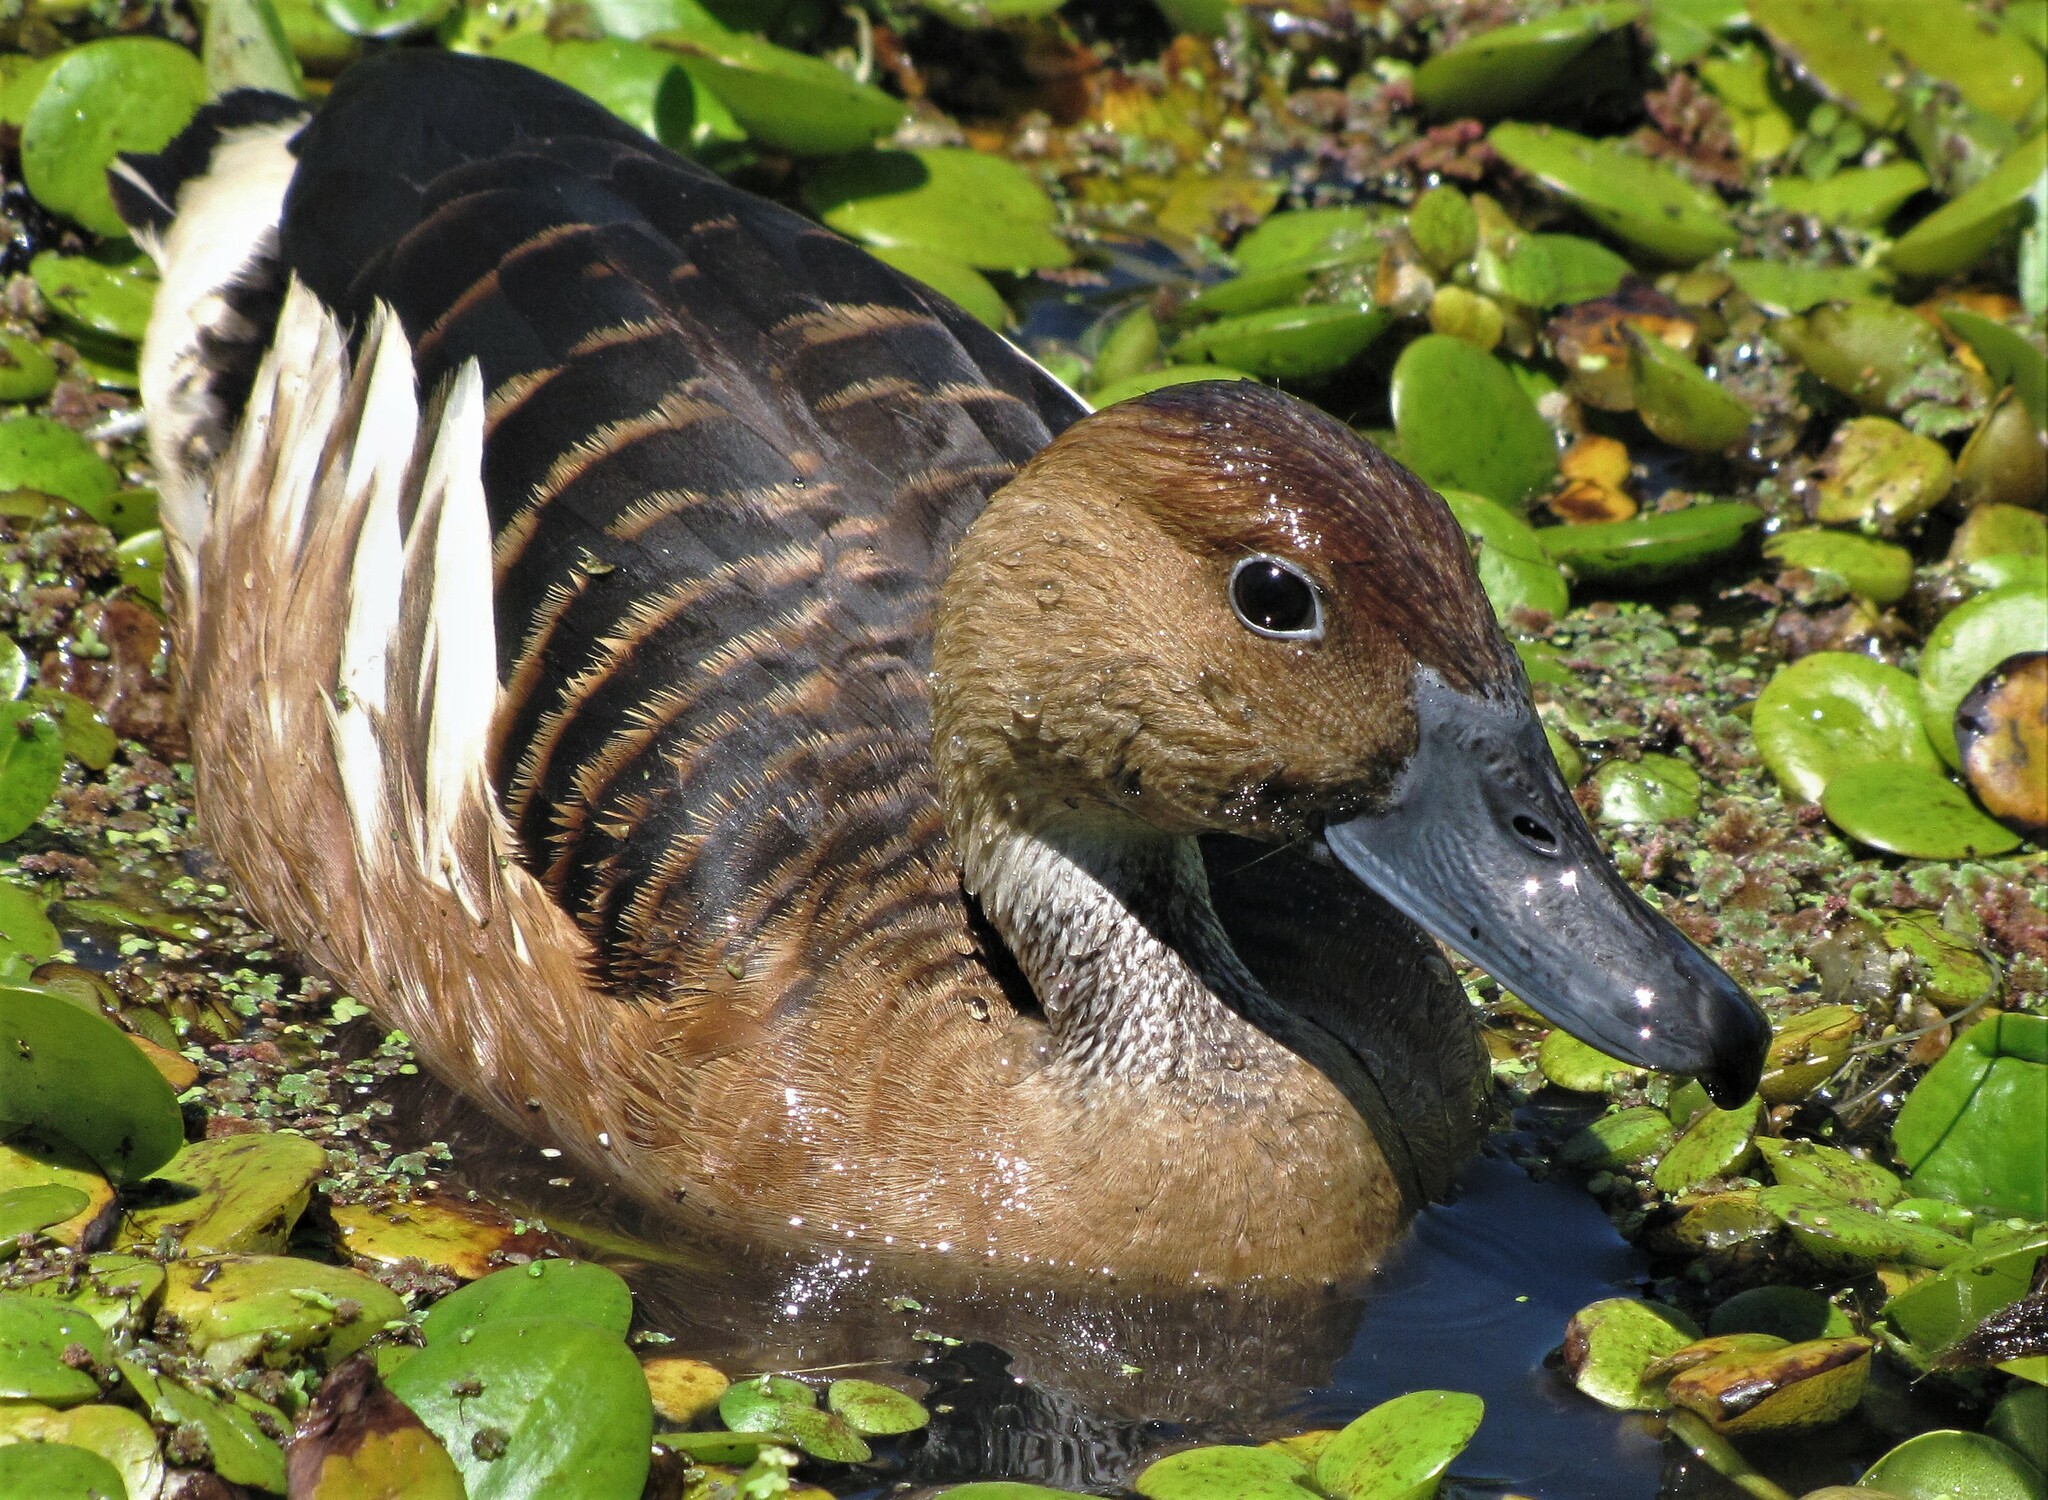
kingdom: Animalia
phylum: Chordata
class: Aves
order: Anseriformes
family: Anatidae
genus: Dendrocygna
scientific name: Dendrocygna bicolor
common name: Fulvous whistling duck
